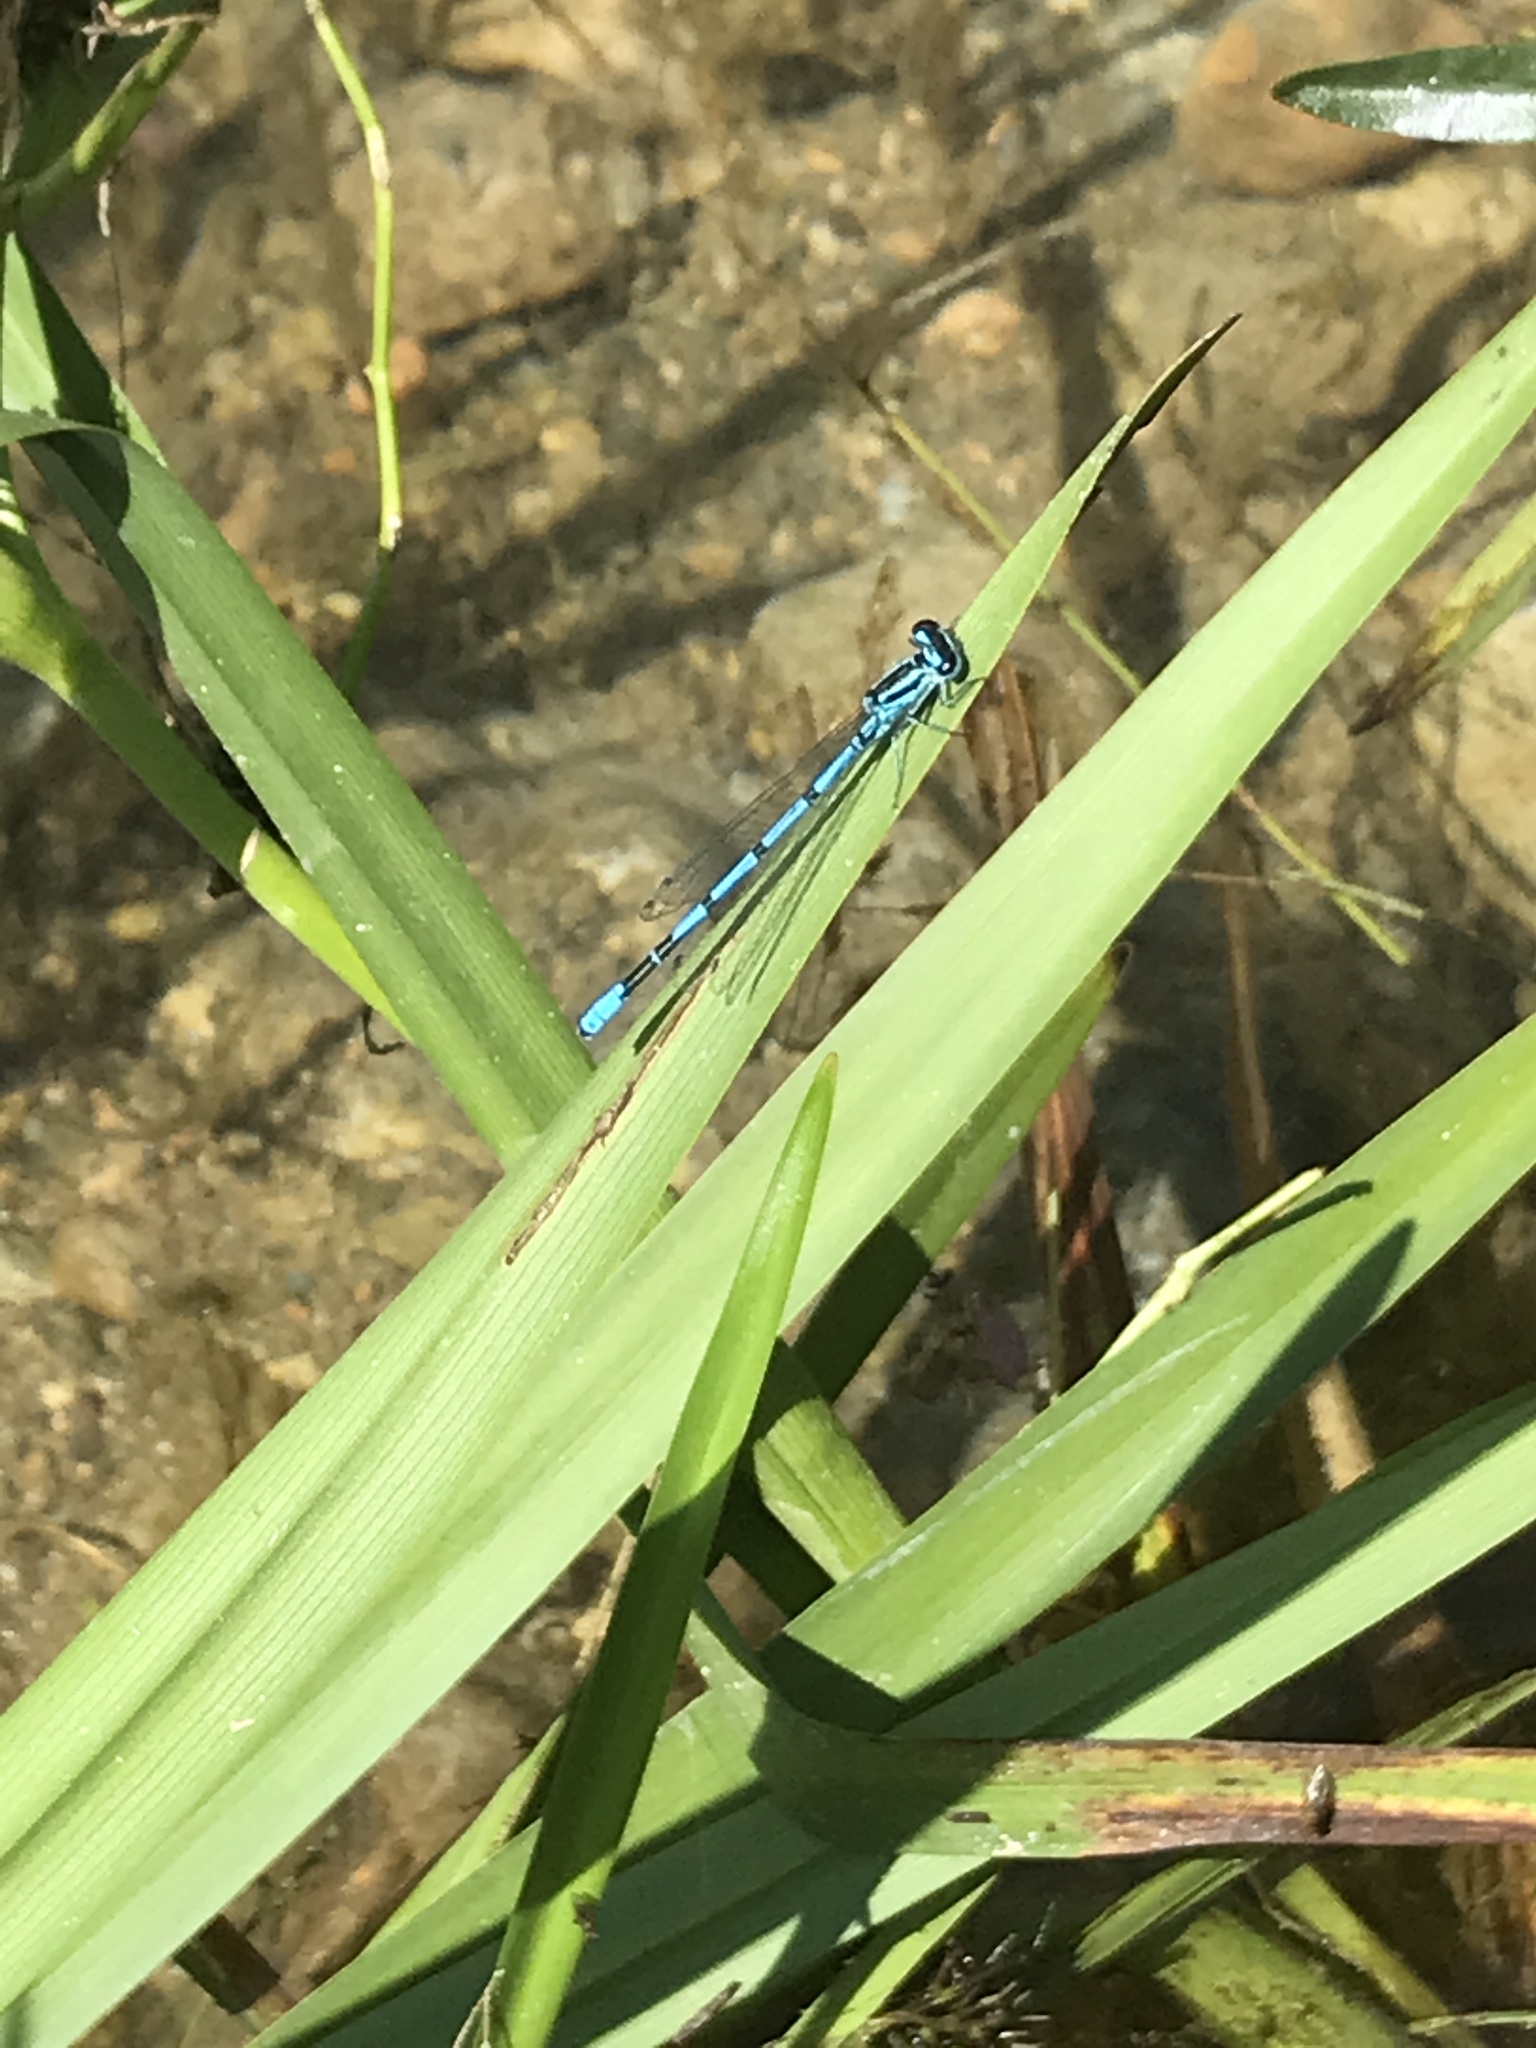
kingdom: Animalia
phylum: Arthropoda
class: Insecta
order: Odonata
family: Coenagrionidae
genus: Enallagma
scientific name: Enallagma cyathigerum
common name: Common blue damselfly
